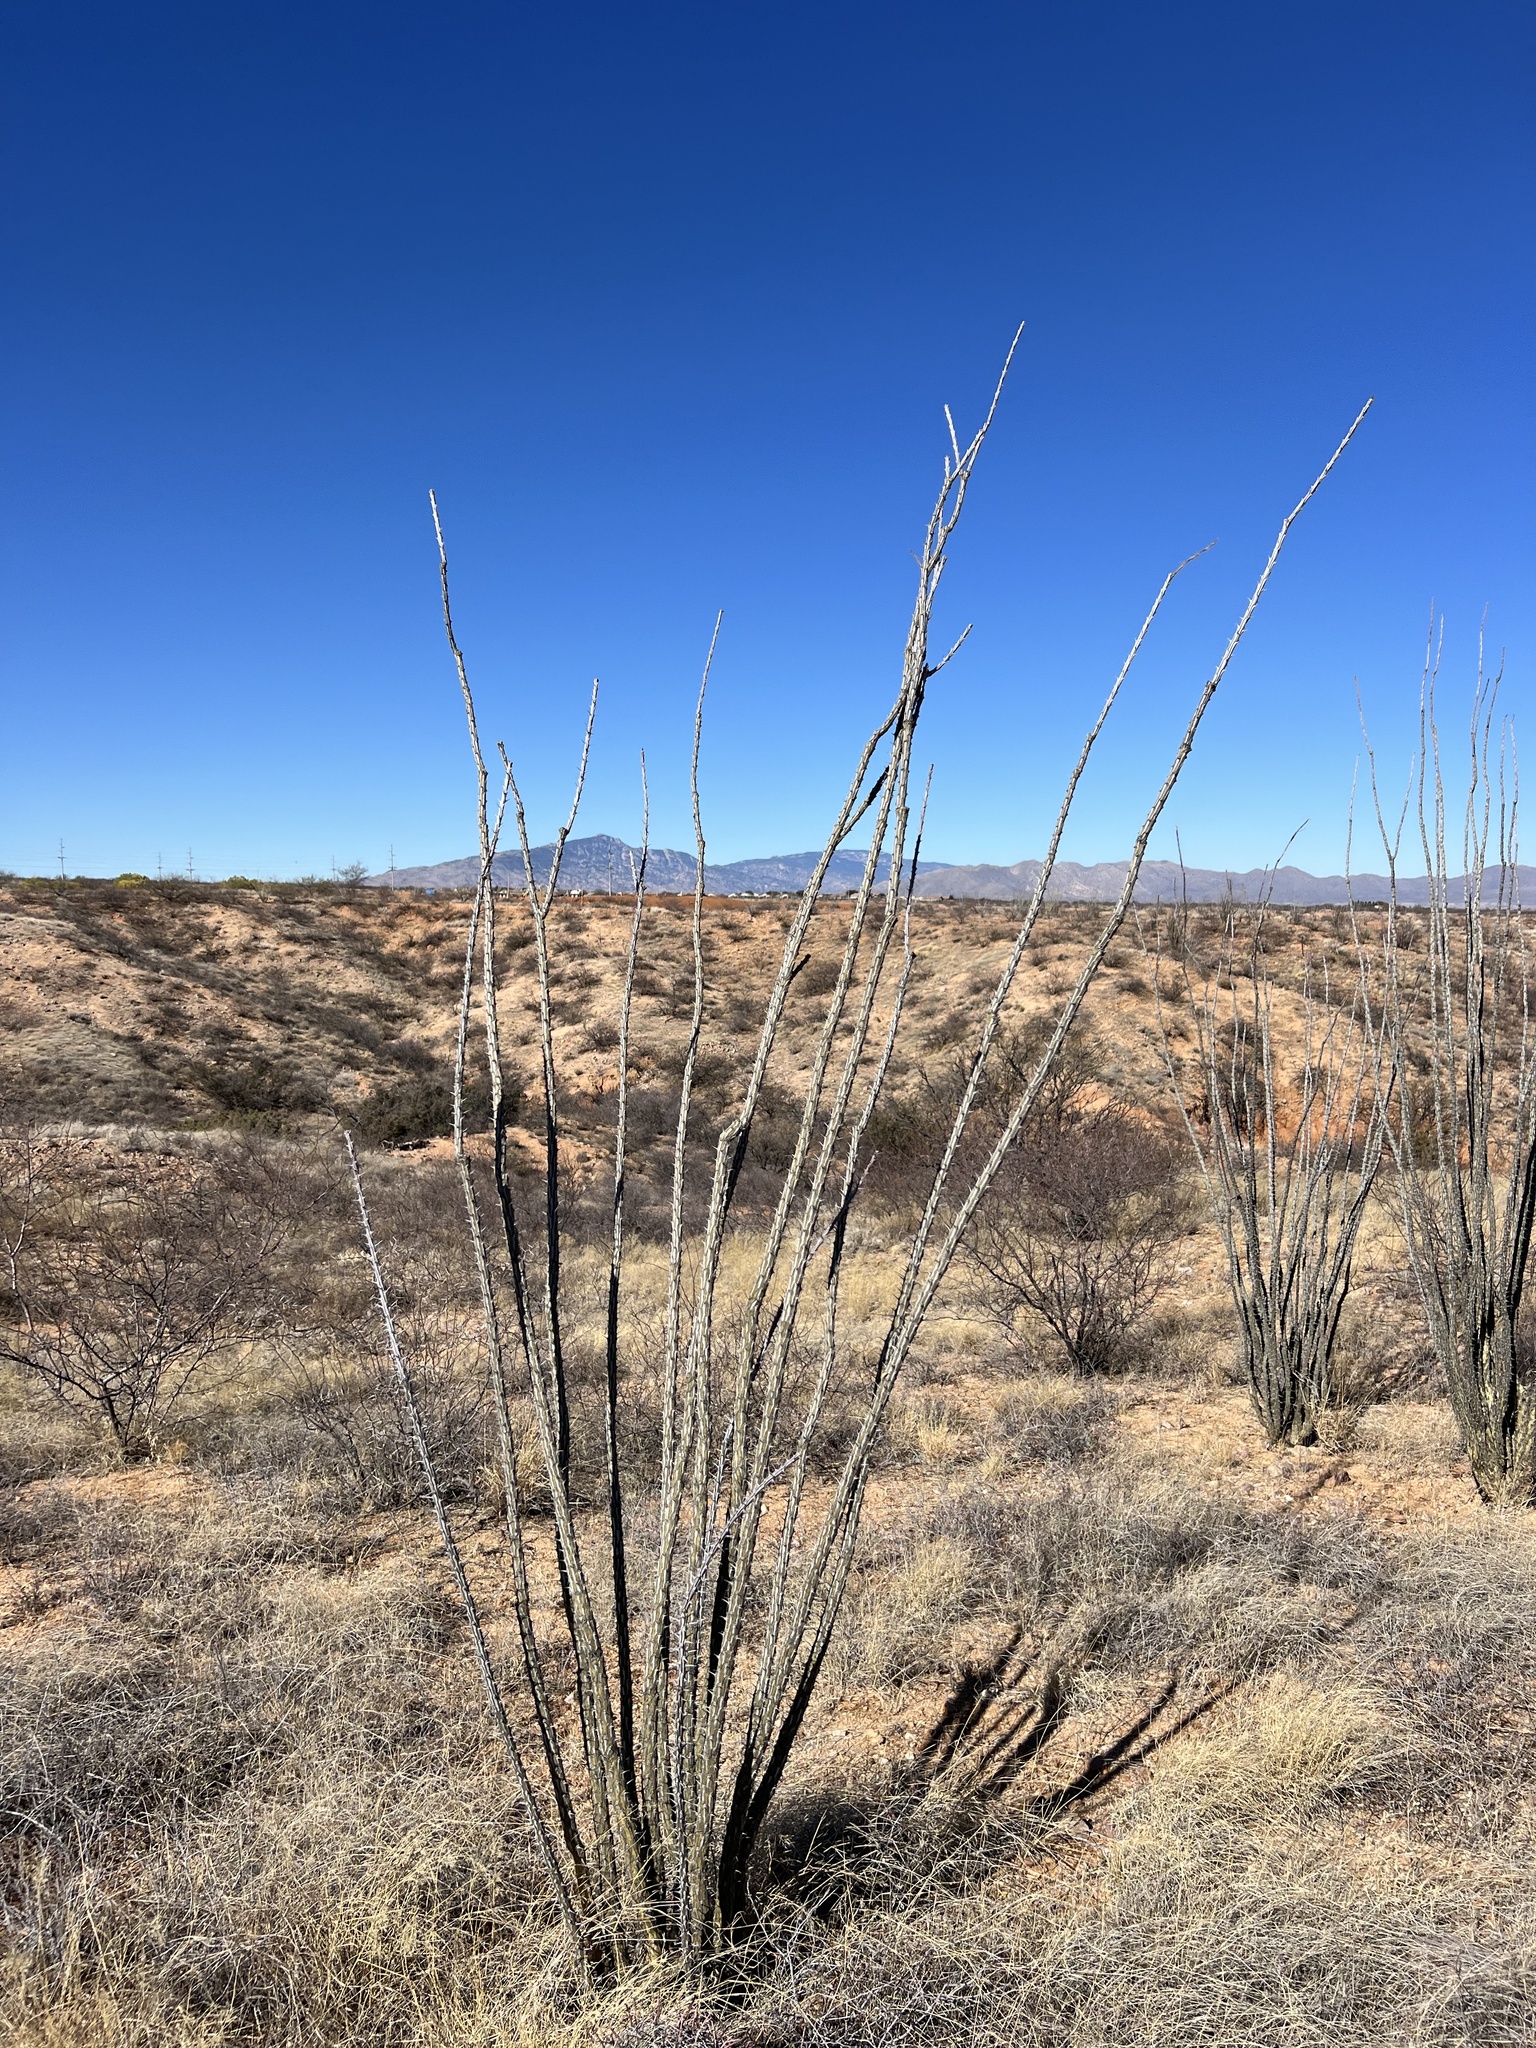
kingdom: Plantae
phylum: Tracheophyta
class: Magnoliopsida
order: Ericales
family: Fouquieriaceae
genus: Fouquieria
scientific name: Fouquieria splendens
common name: Vine-cactus
